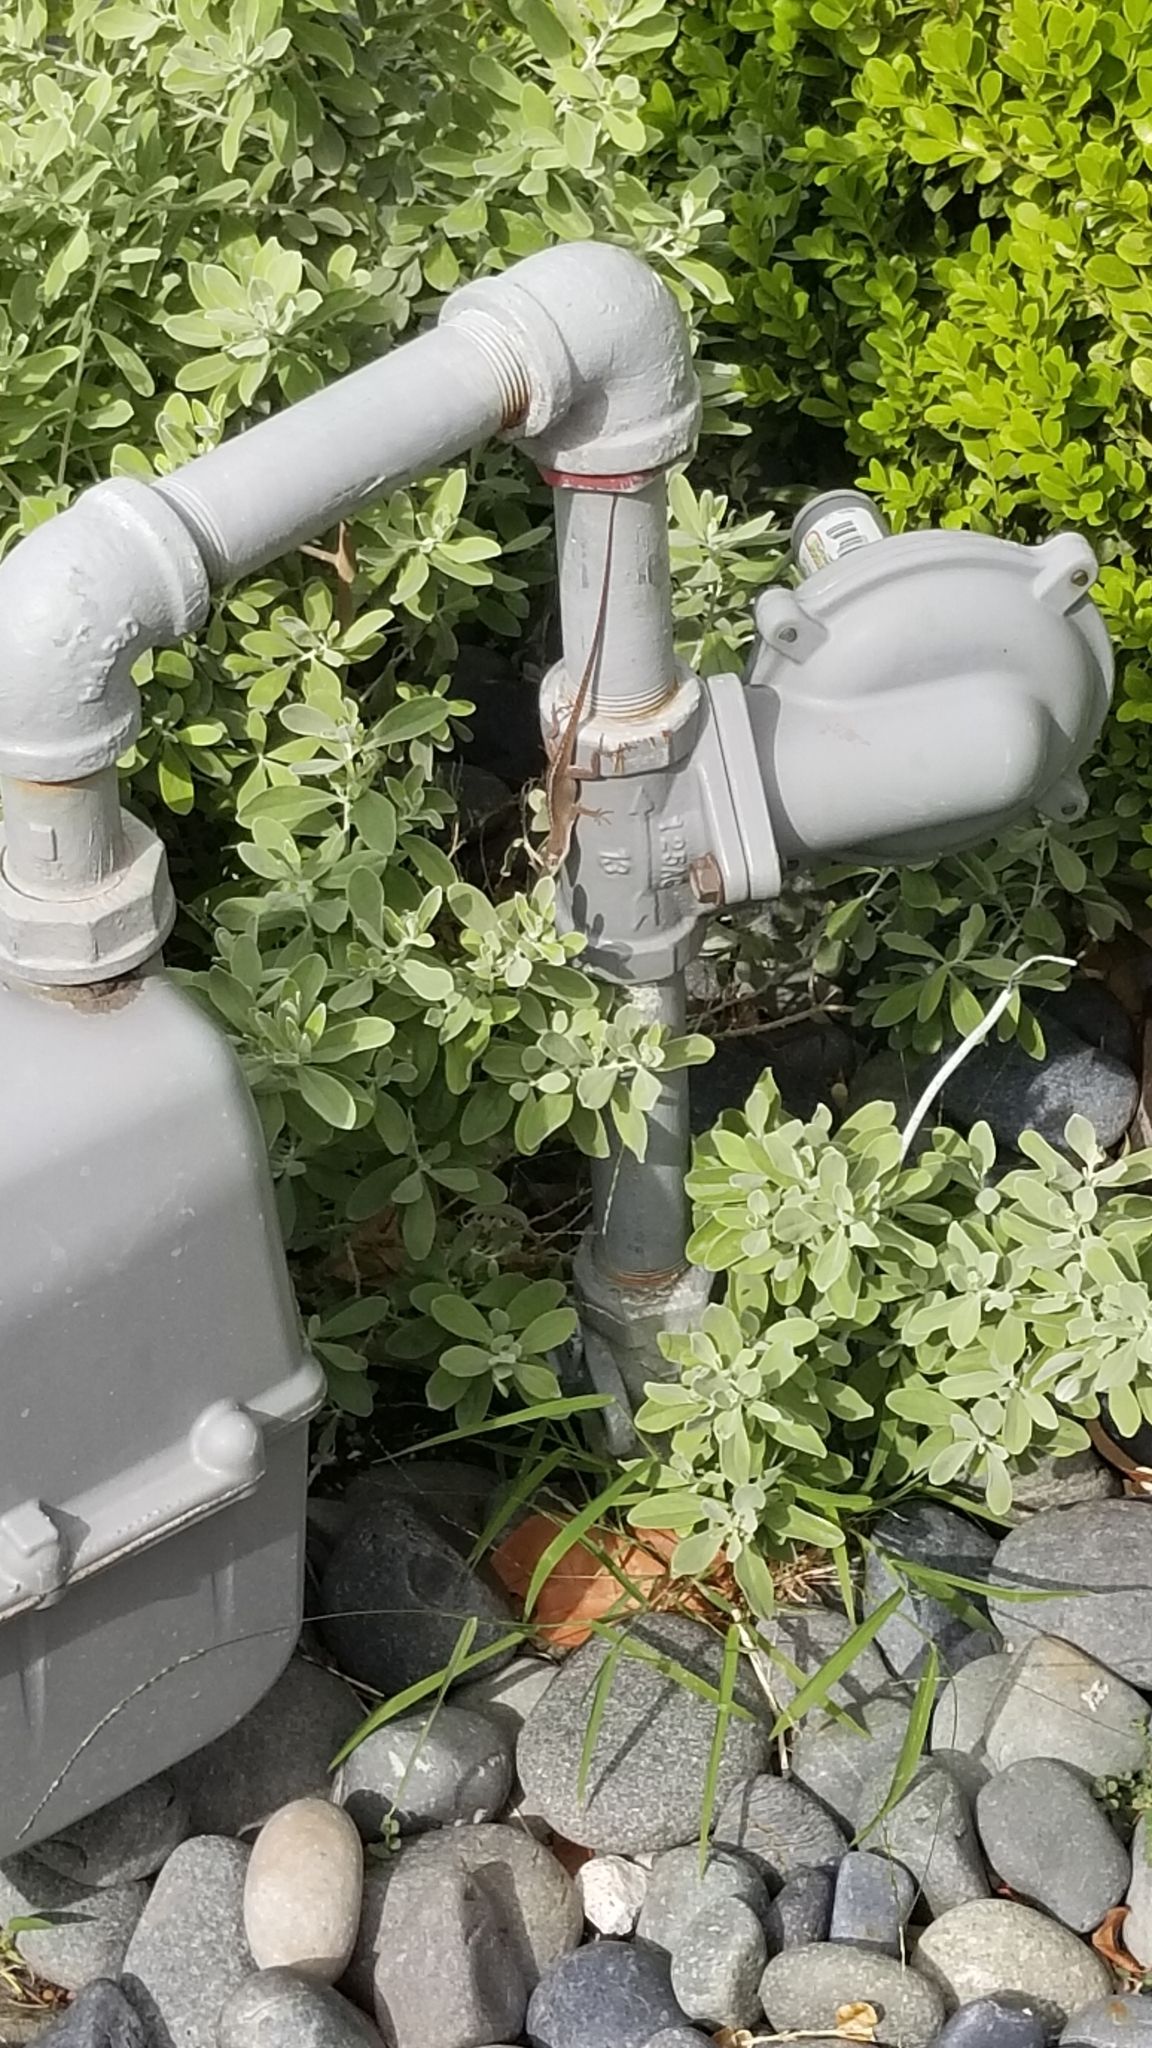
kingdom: Animalia
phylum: Chordata
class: Squamata
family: Dactyloidae
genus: Anolis
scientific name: Anolis carolinensis
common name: Green anole
